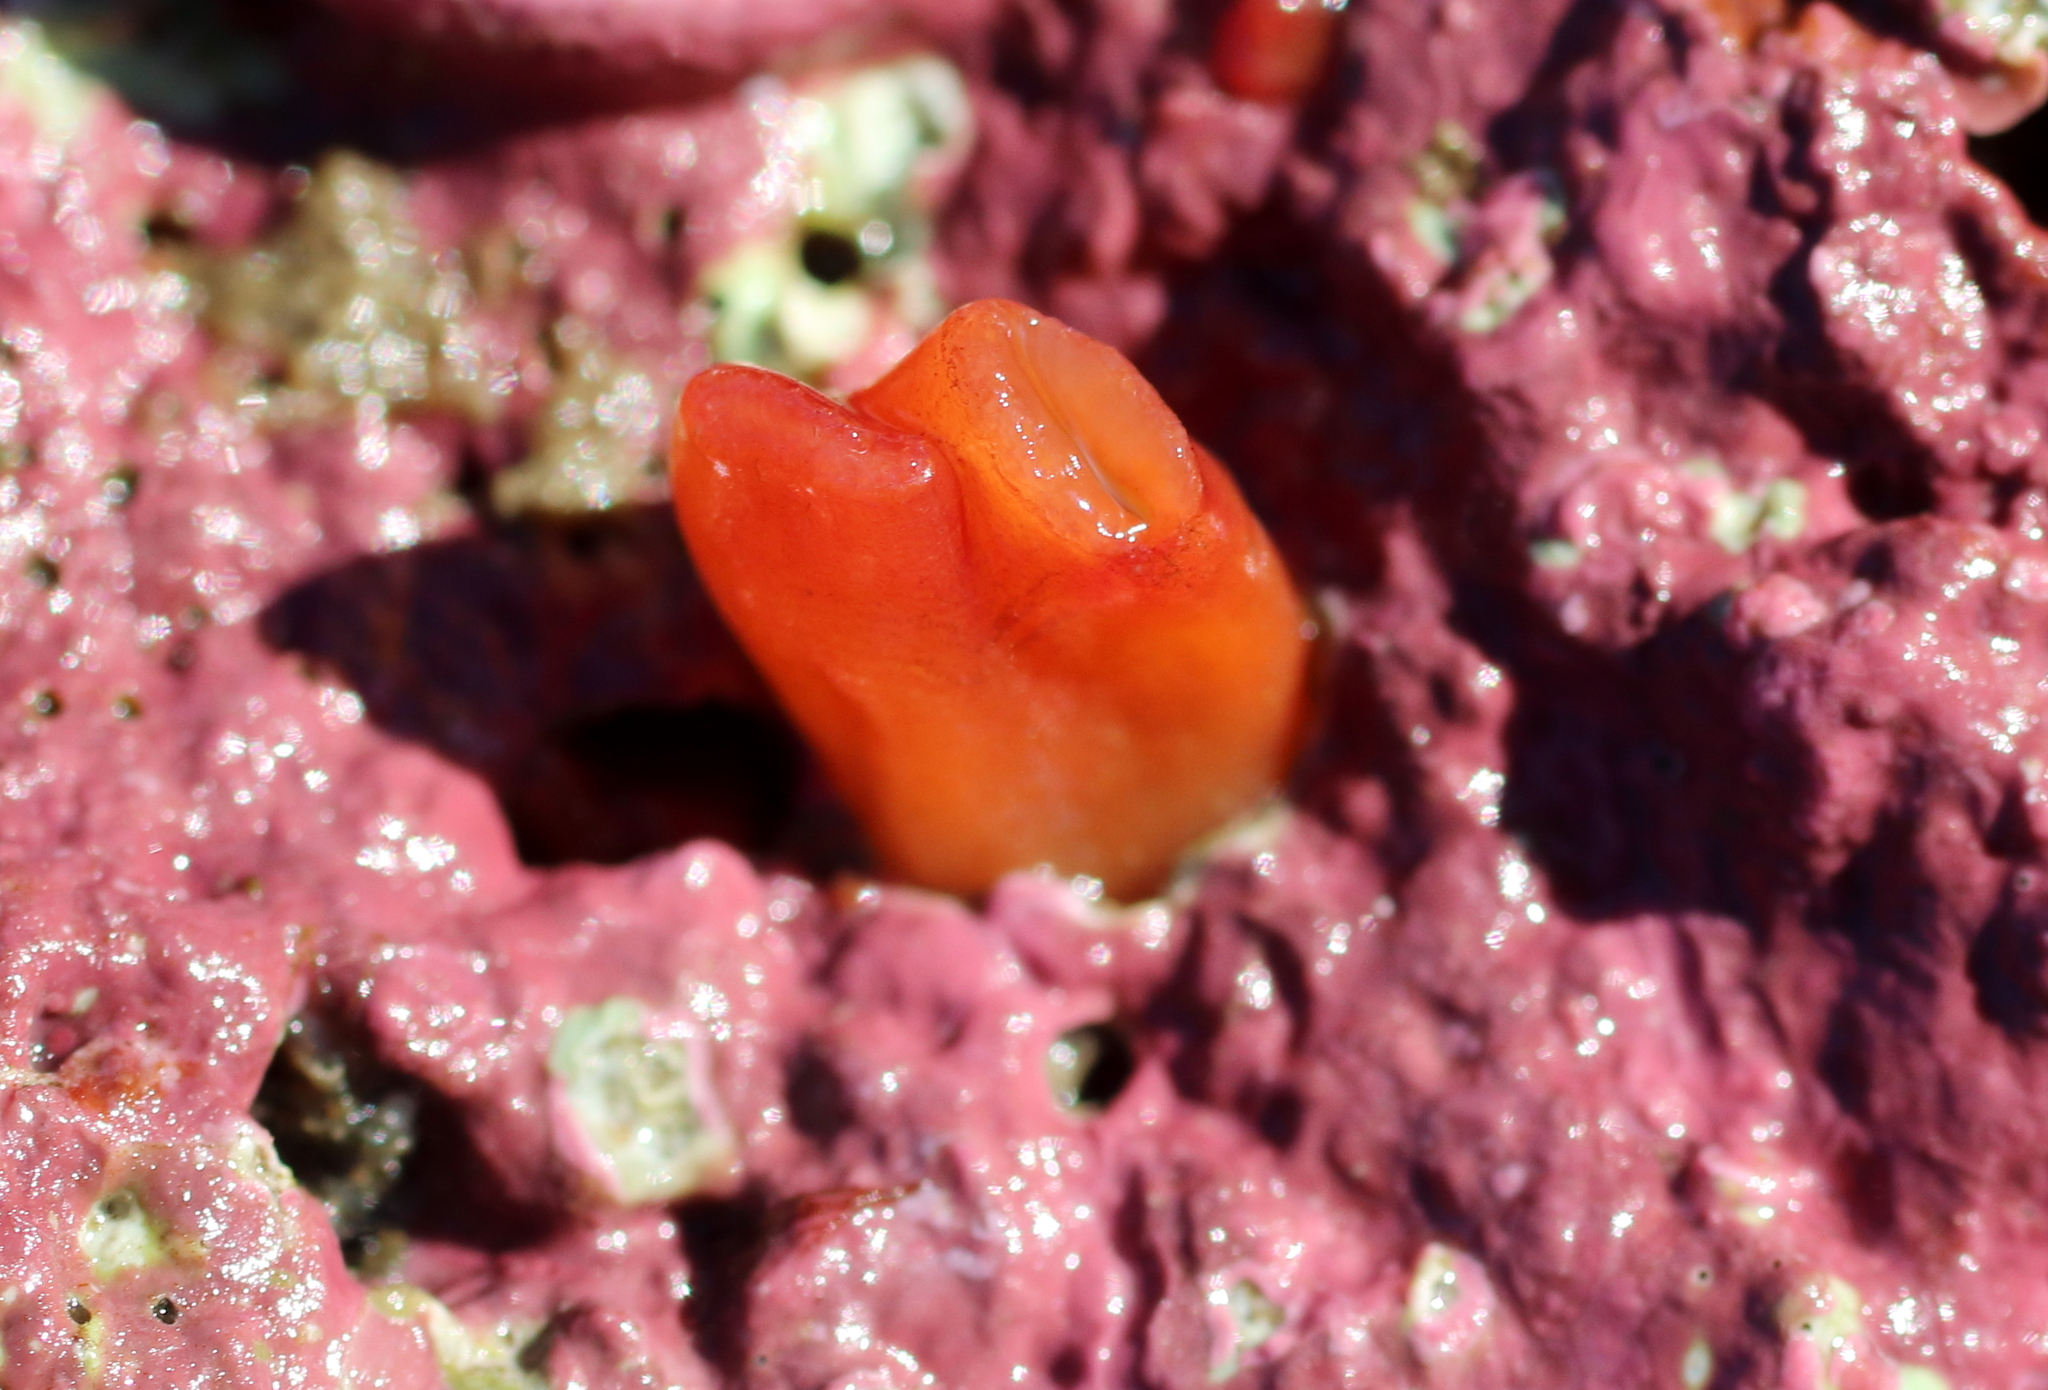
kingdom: Animalia
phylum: Mollusca
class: Bivalvia
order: Adapedonta
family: Hiatellidae
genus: Hiatella
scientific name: Hiatella arctica
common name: Arctic hiatella
